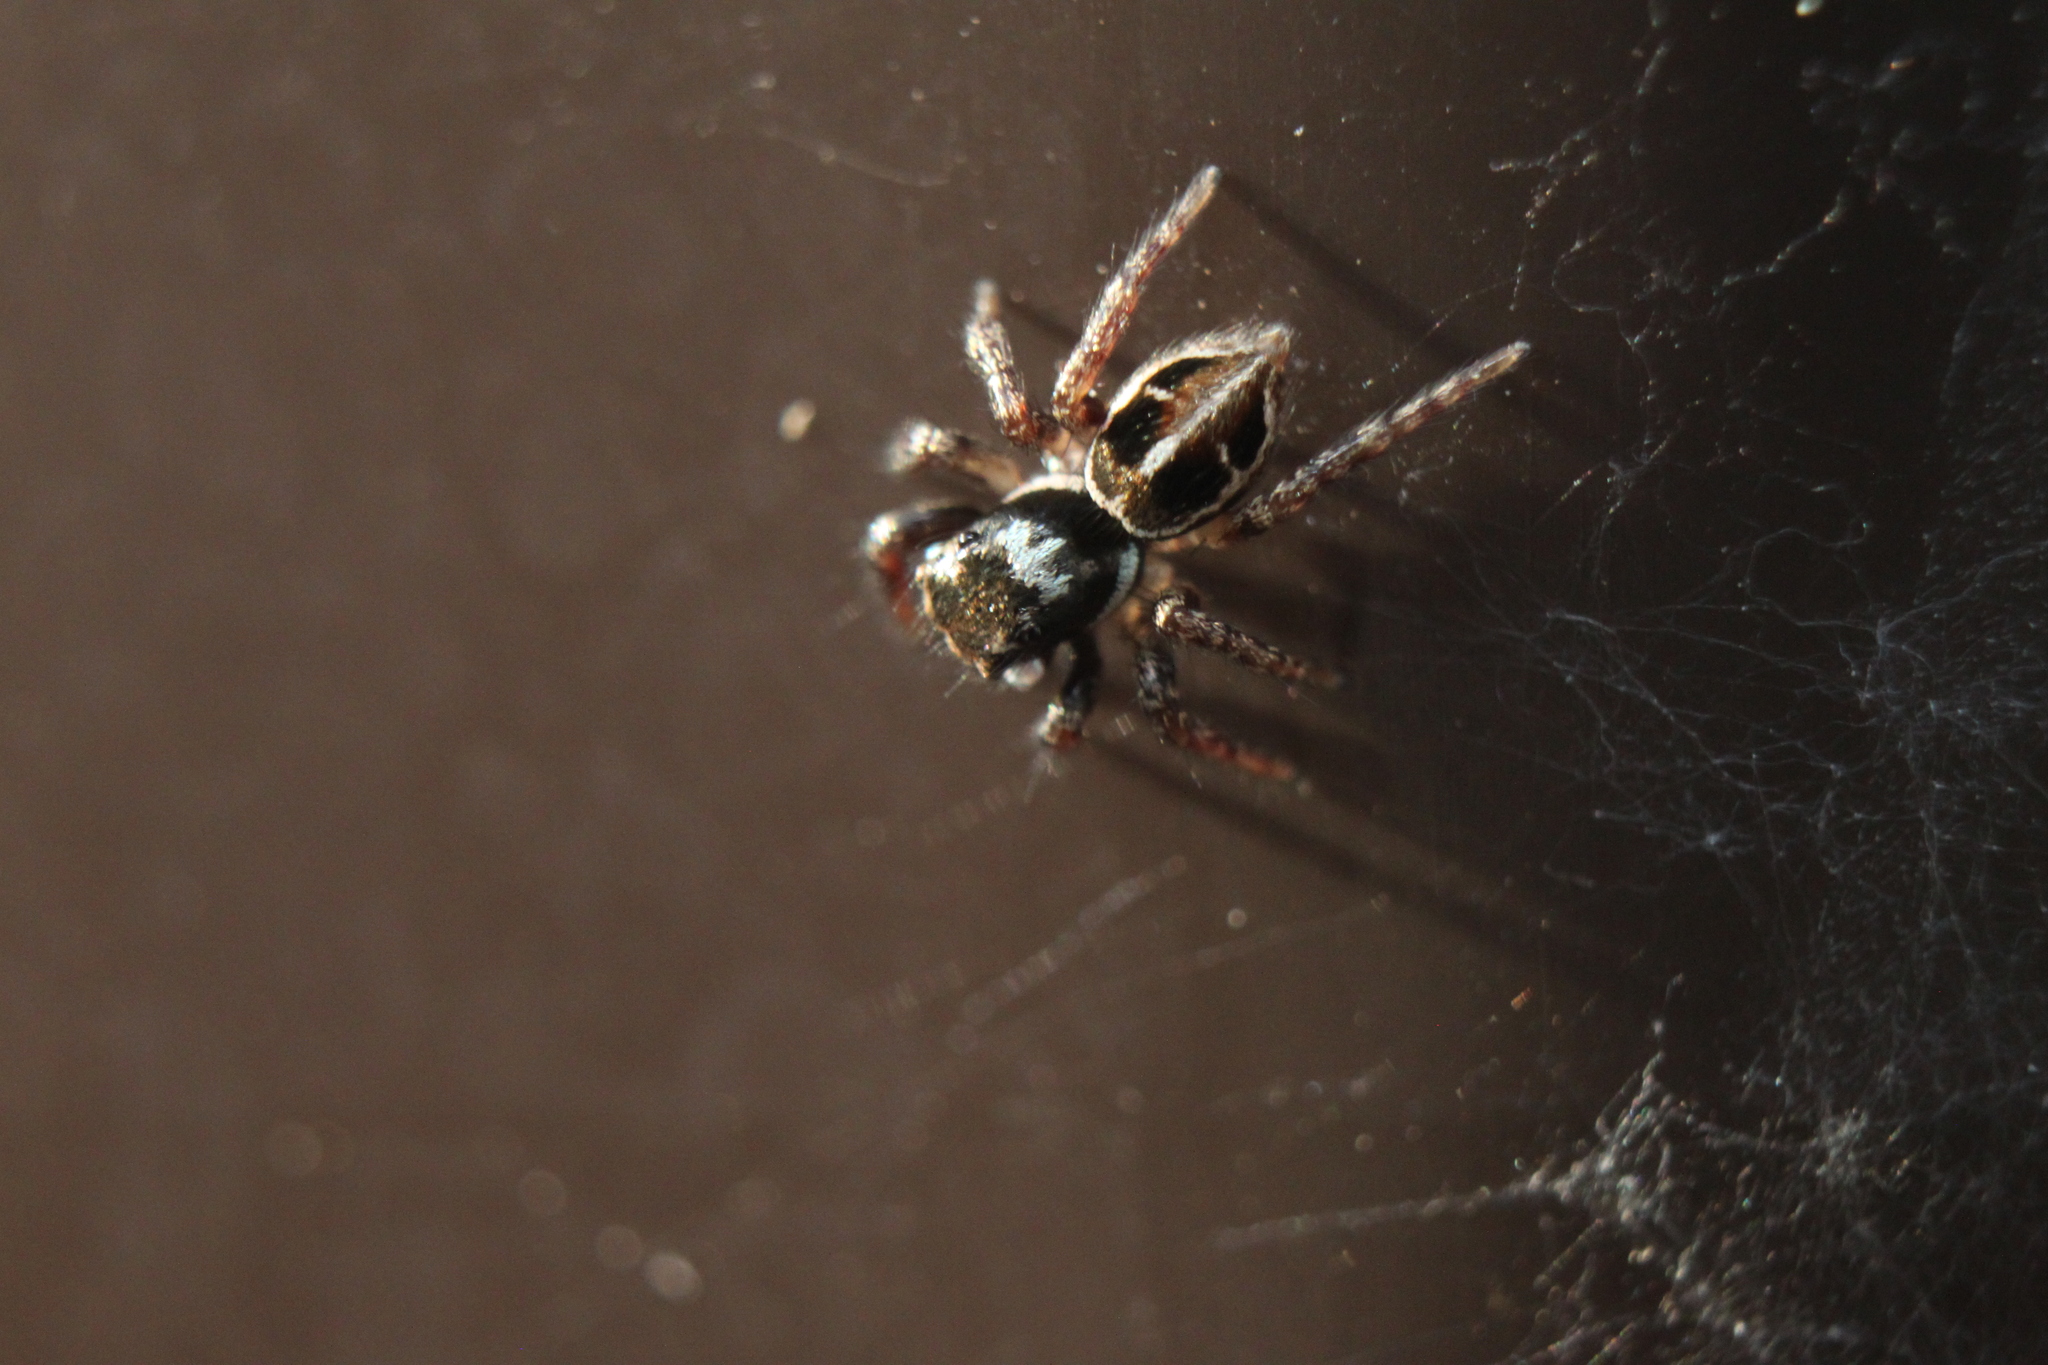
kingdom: Animalia
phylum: Arthropoda
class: Arachnida
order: Araneae
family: Salticidae
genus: Anasaitis
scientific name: Anasaitis canosa
